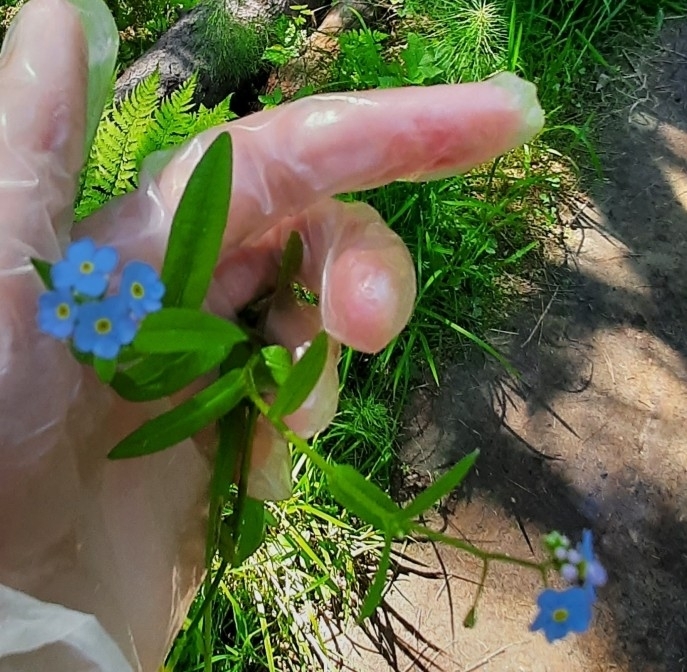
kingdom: Plantae
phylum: Tracheophyta
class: Magnoliopsida
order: Boraginales
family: Boraginaceae
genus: Myosotis
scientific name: Myosotis scorpioides
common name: Water forget-me-not
